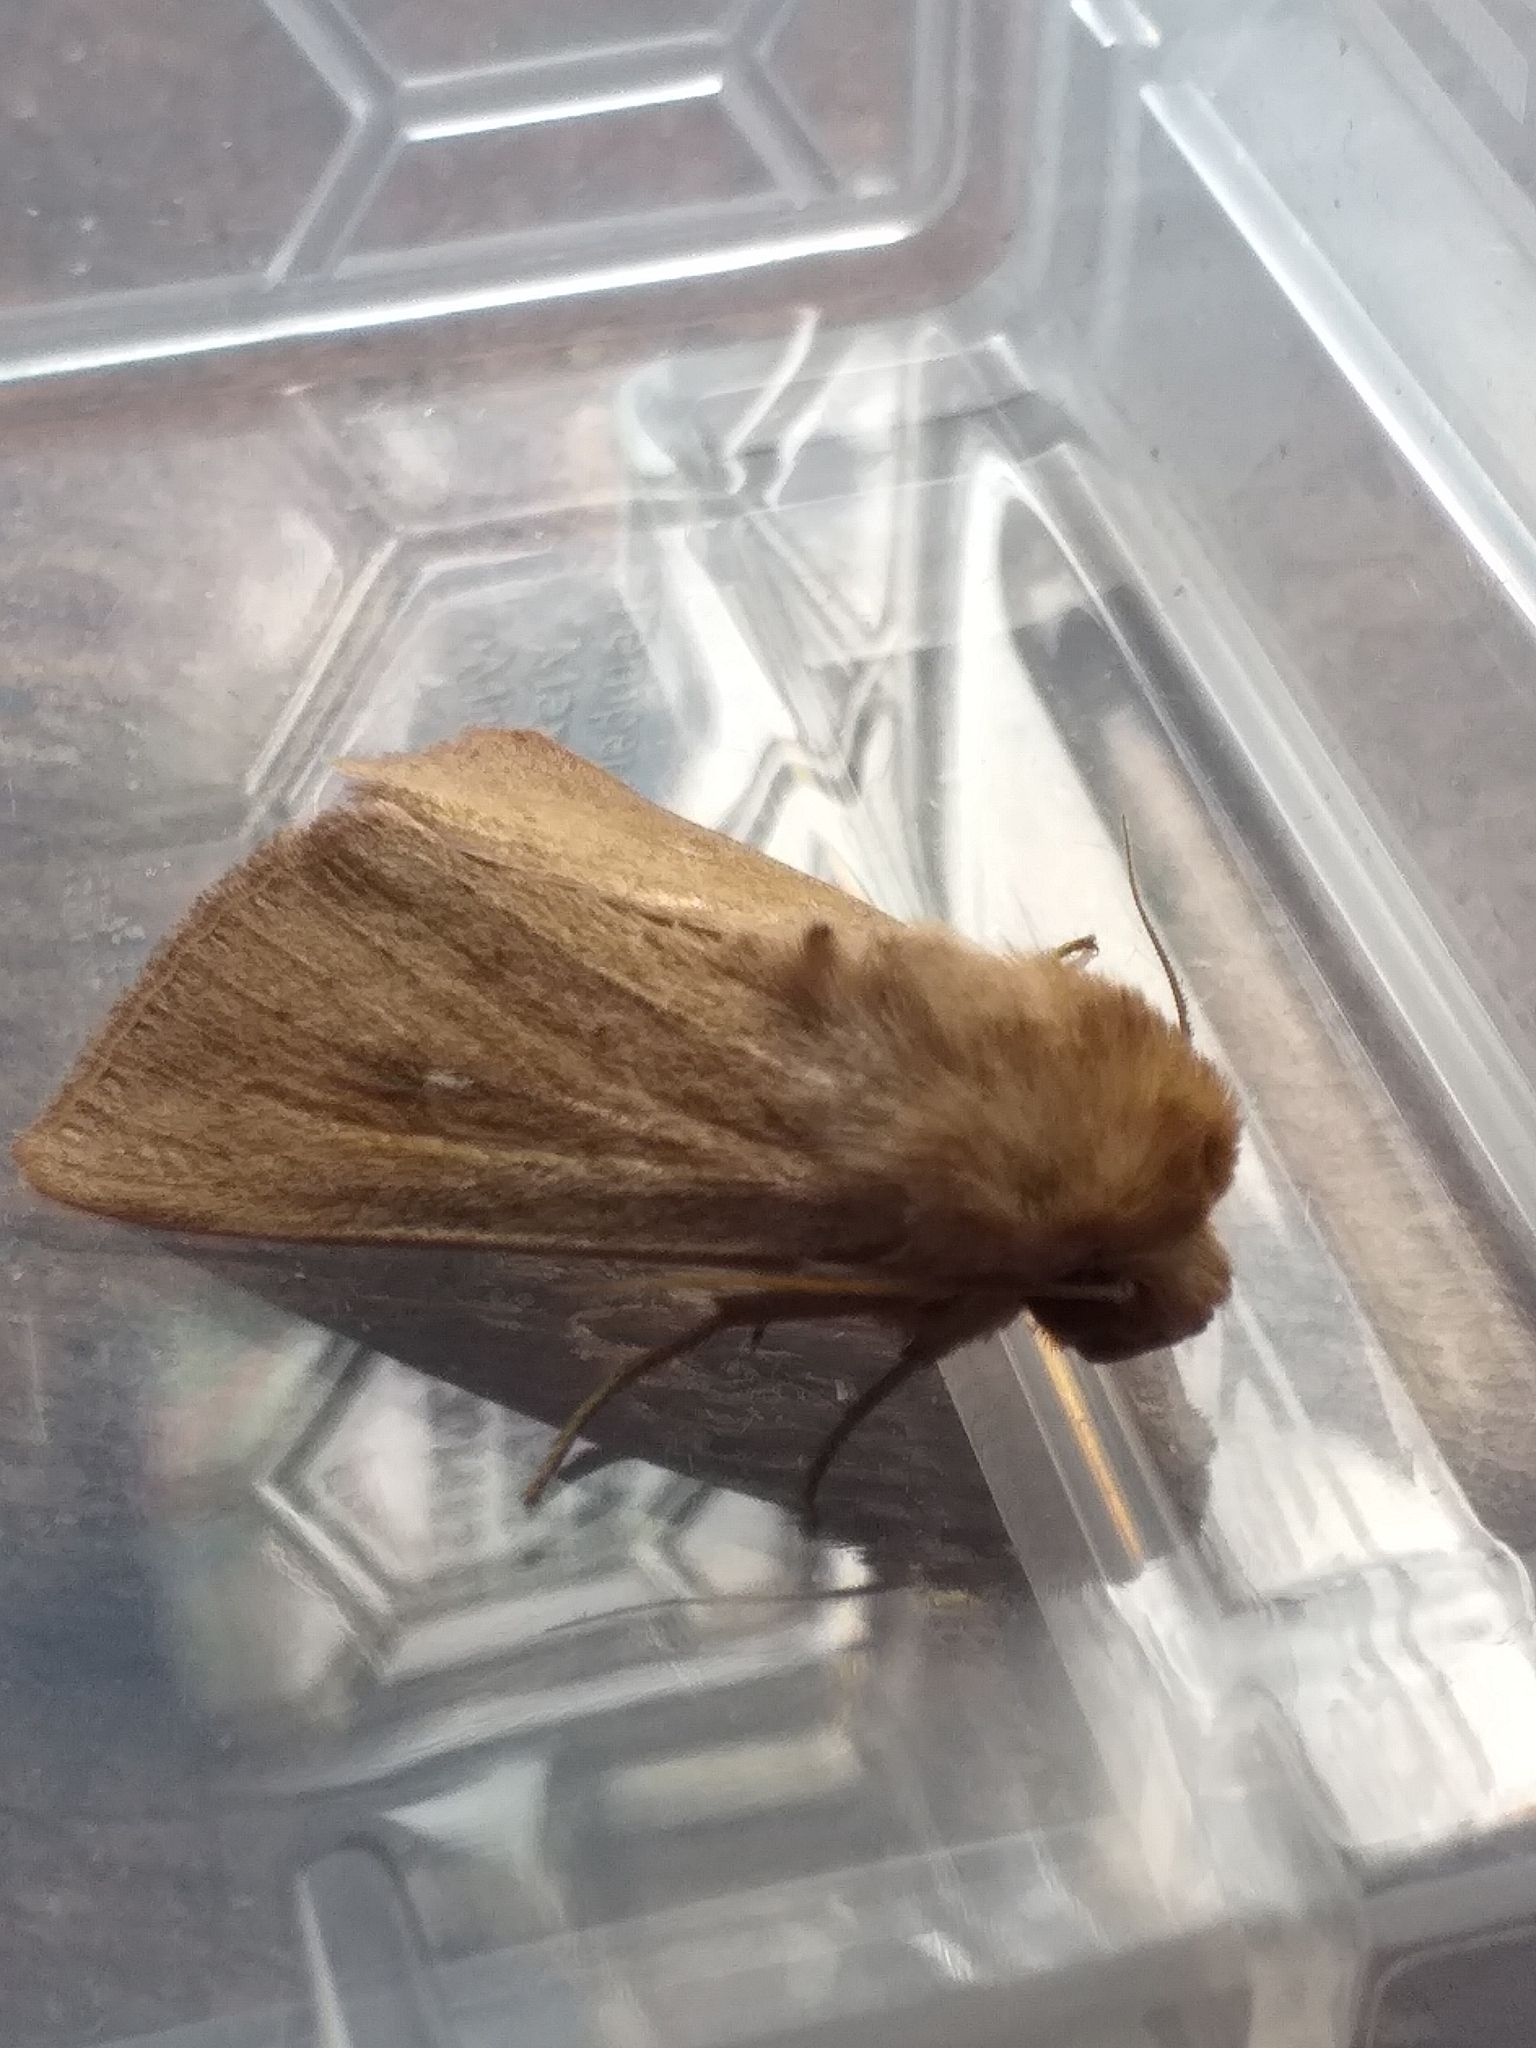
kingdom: Animalia
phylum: Arthropoda
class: Insecta
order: Lepidoptera
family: Noctuidae
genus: Mythimna
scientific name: Mythimna ferrago
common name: Clay
